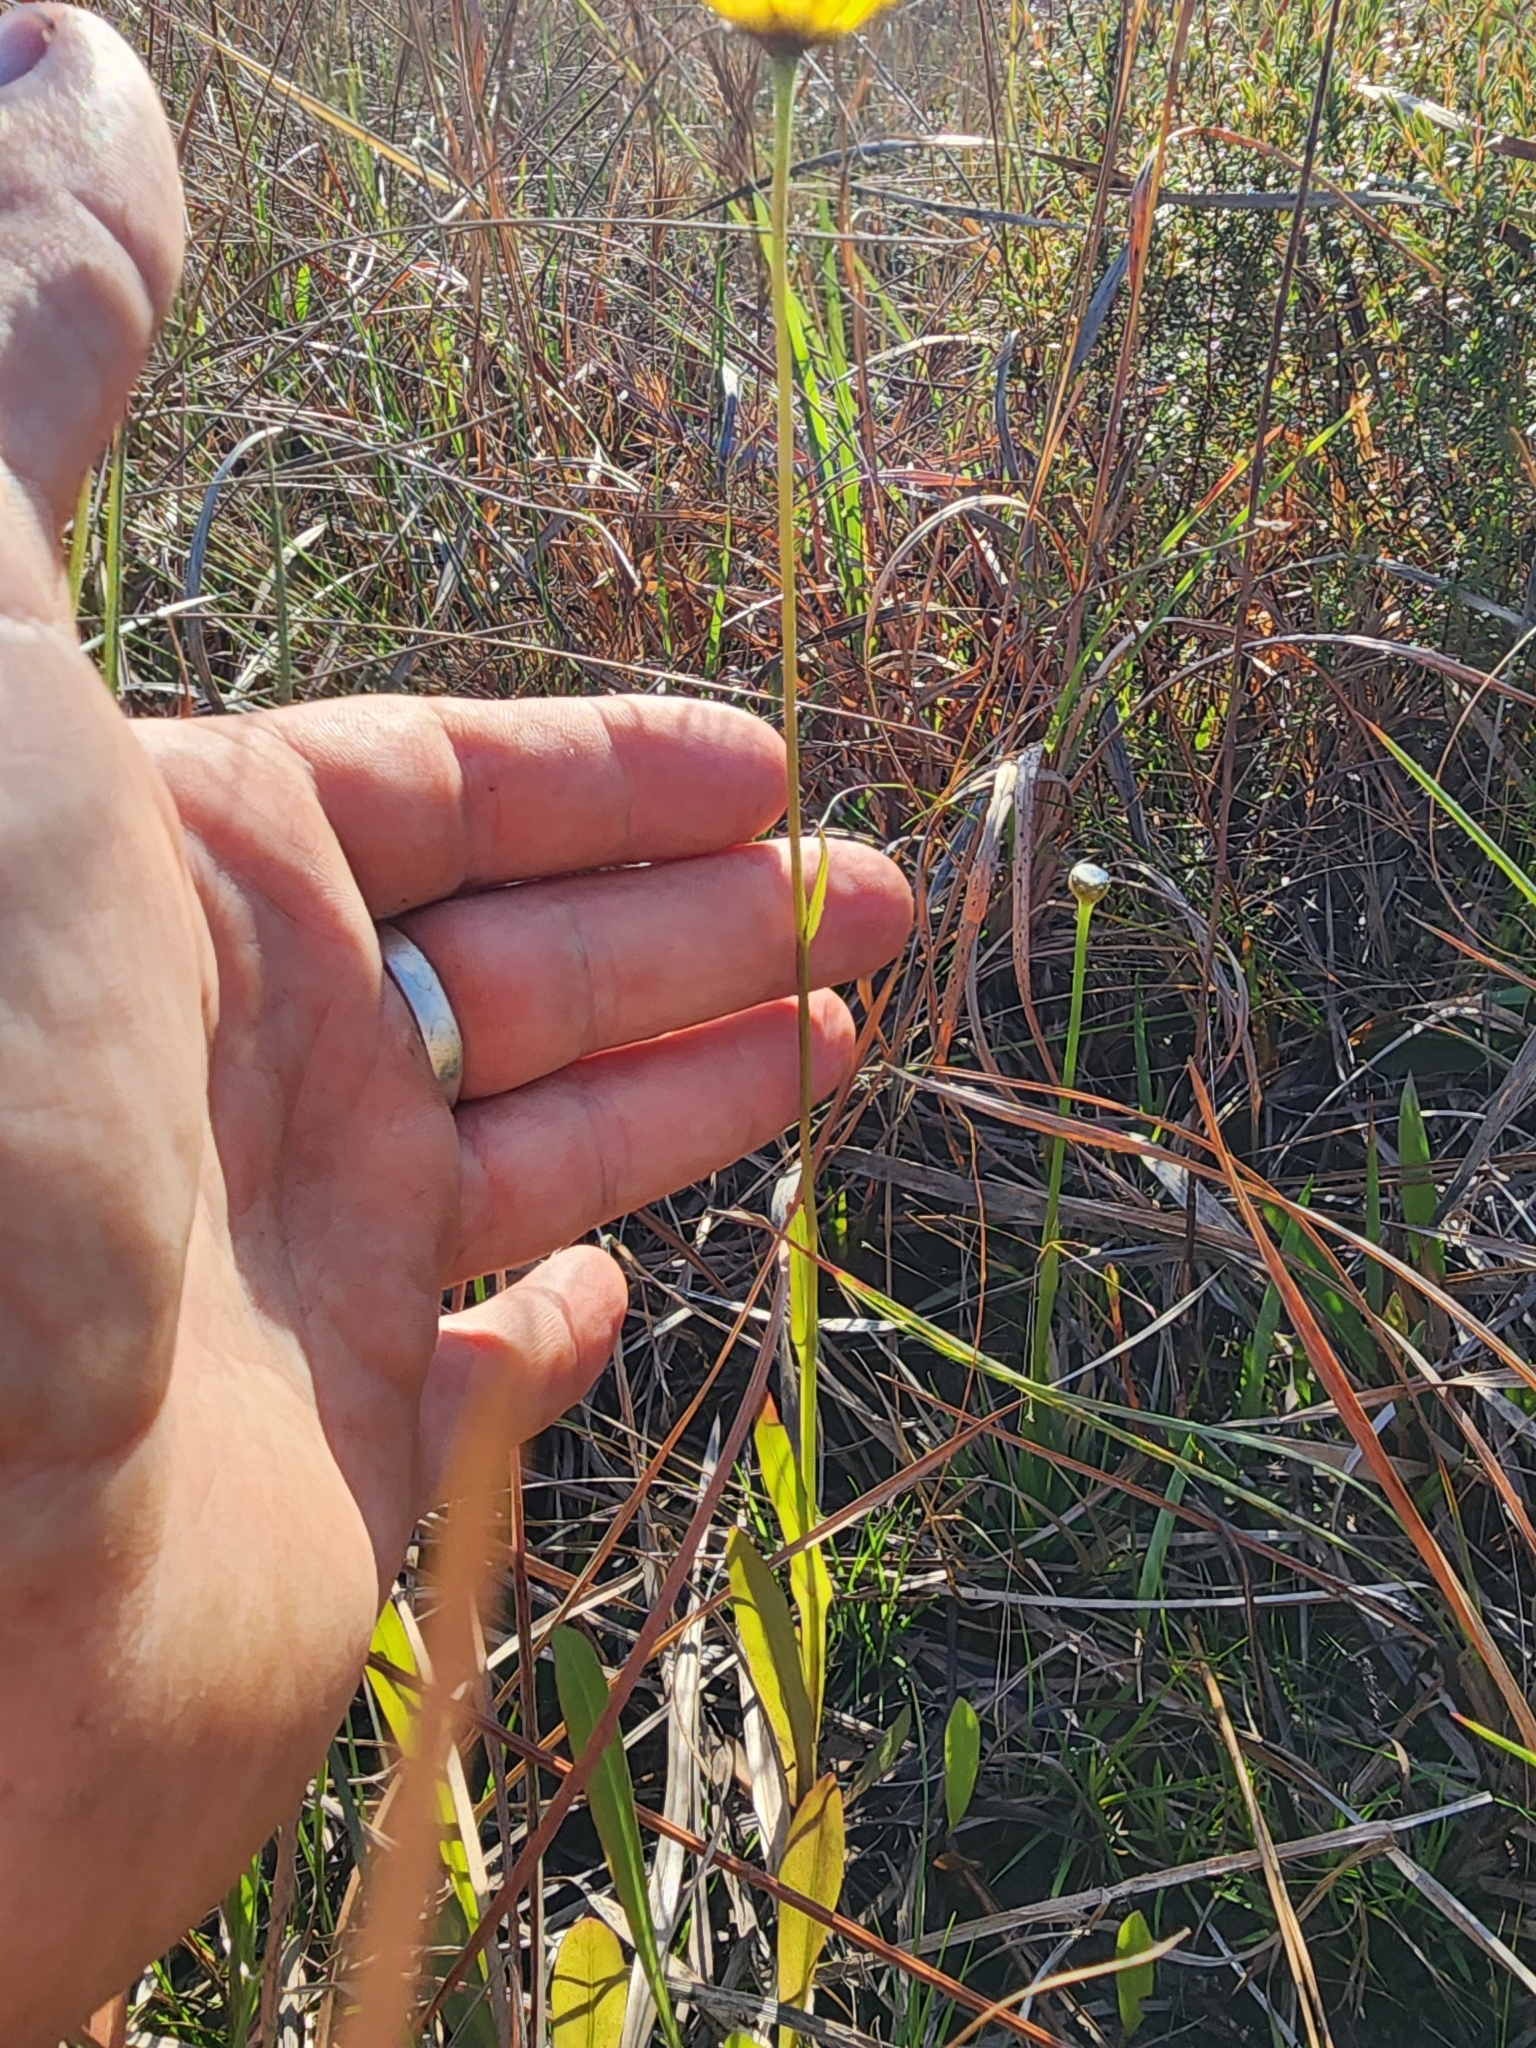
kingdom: Plantae
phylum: Tracheophyta
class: Magnoliopsida
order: Asterales
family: Asteraceae
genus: Helenium
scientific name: Helenium vernale
